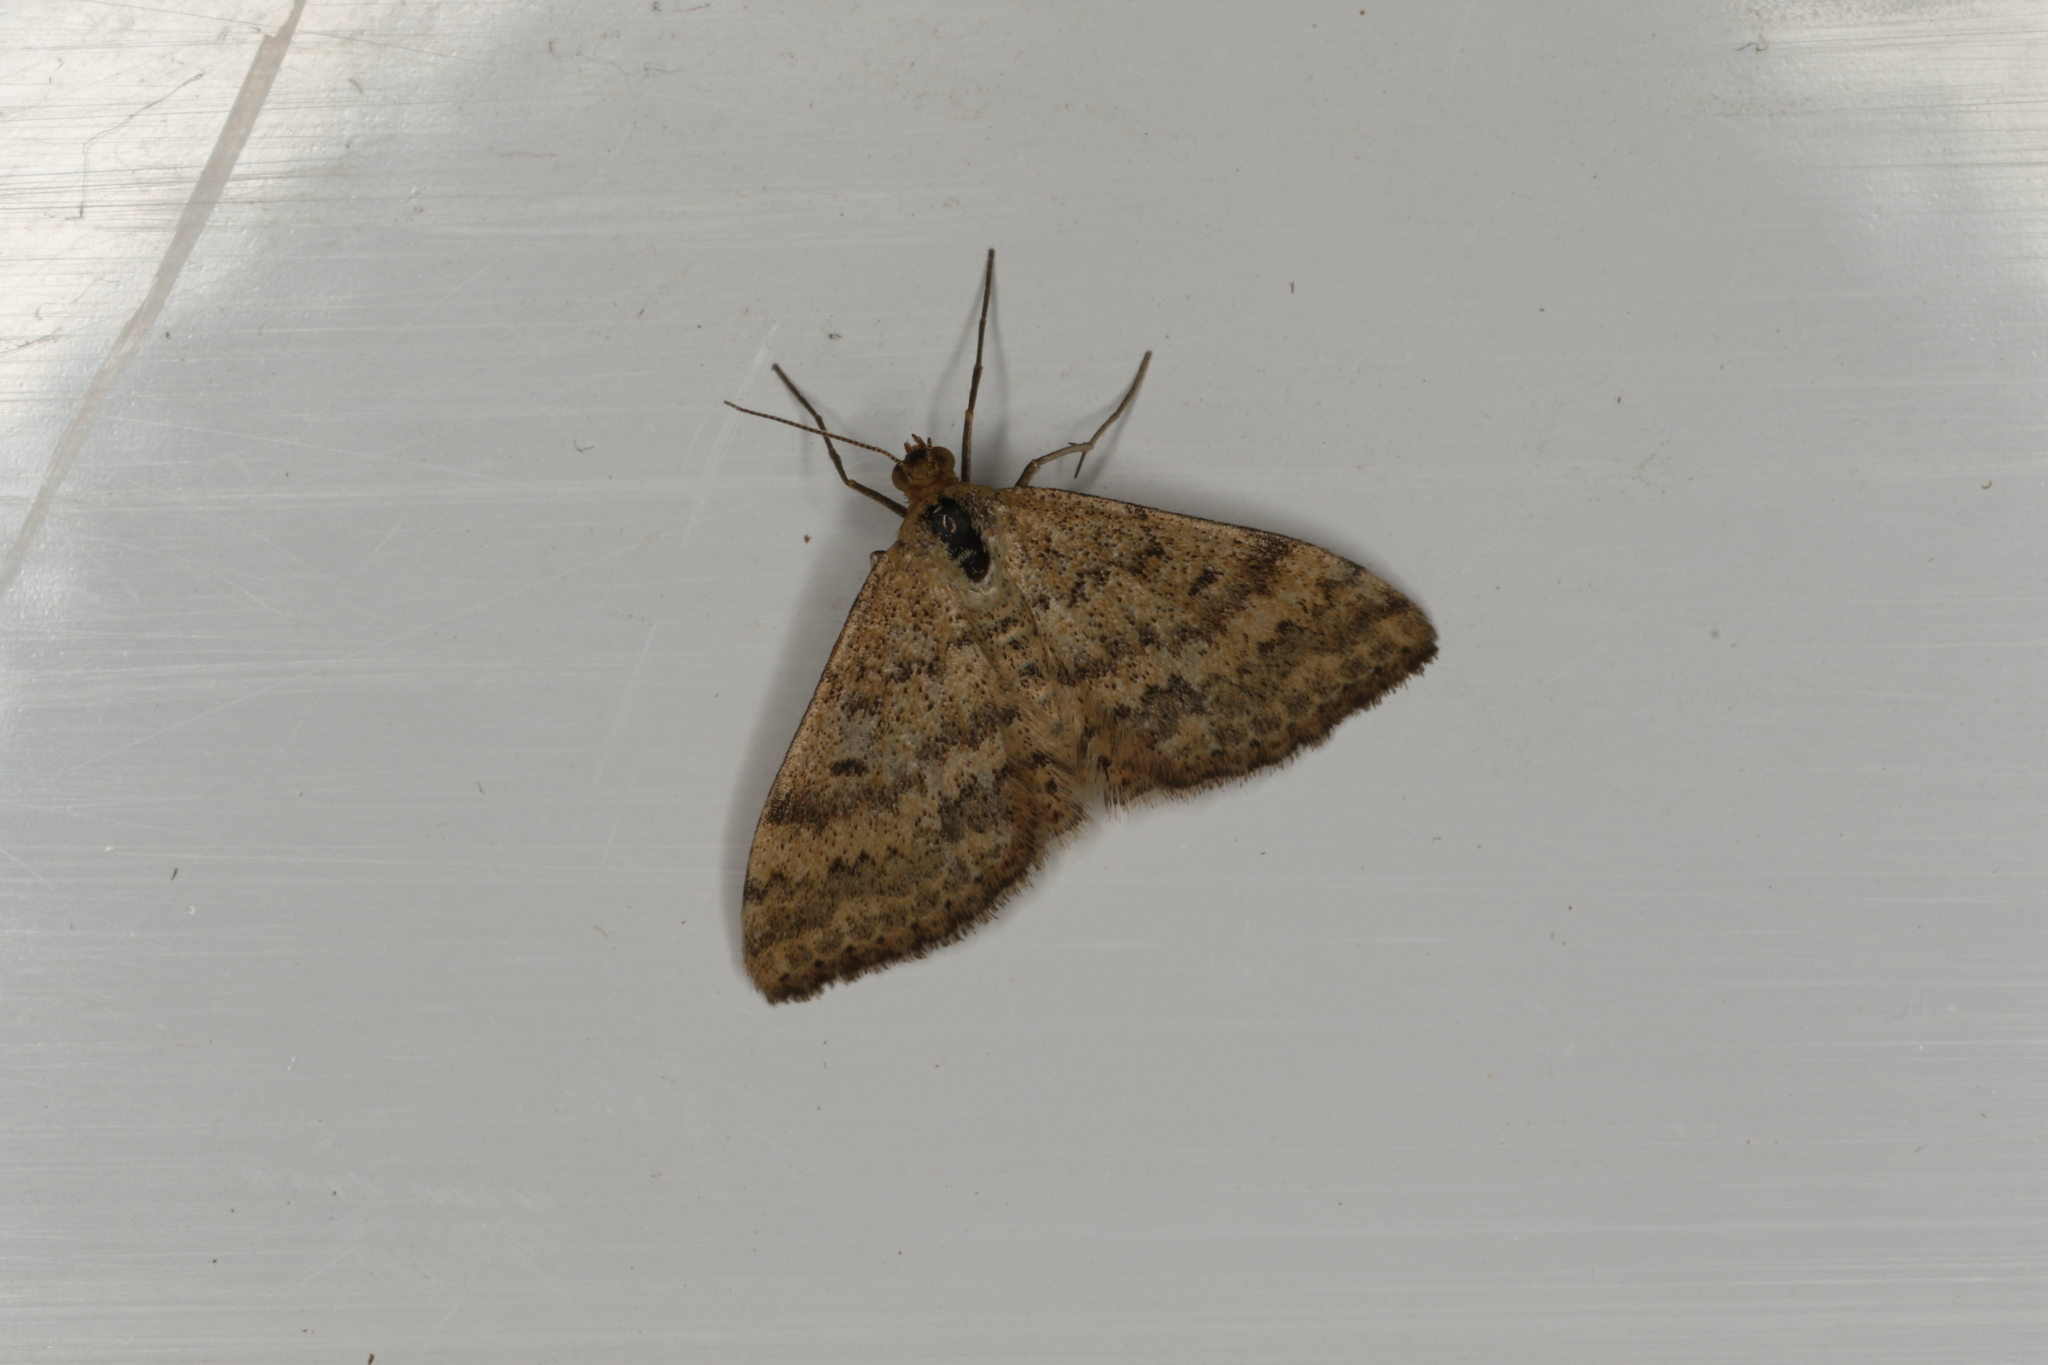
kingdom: Animalia
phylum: Arthropoda
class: Insecta
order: Lepidoptera
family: Geometridae
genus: Scopula
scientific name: Scopula rubraria
